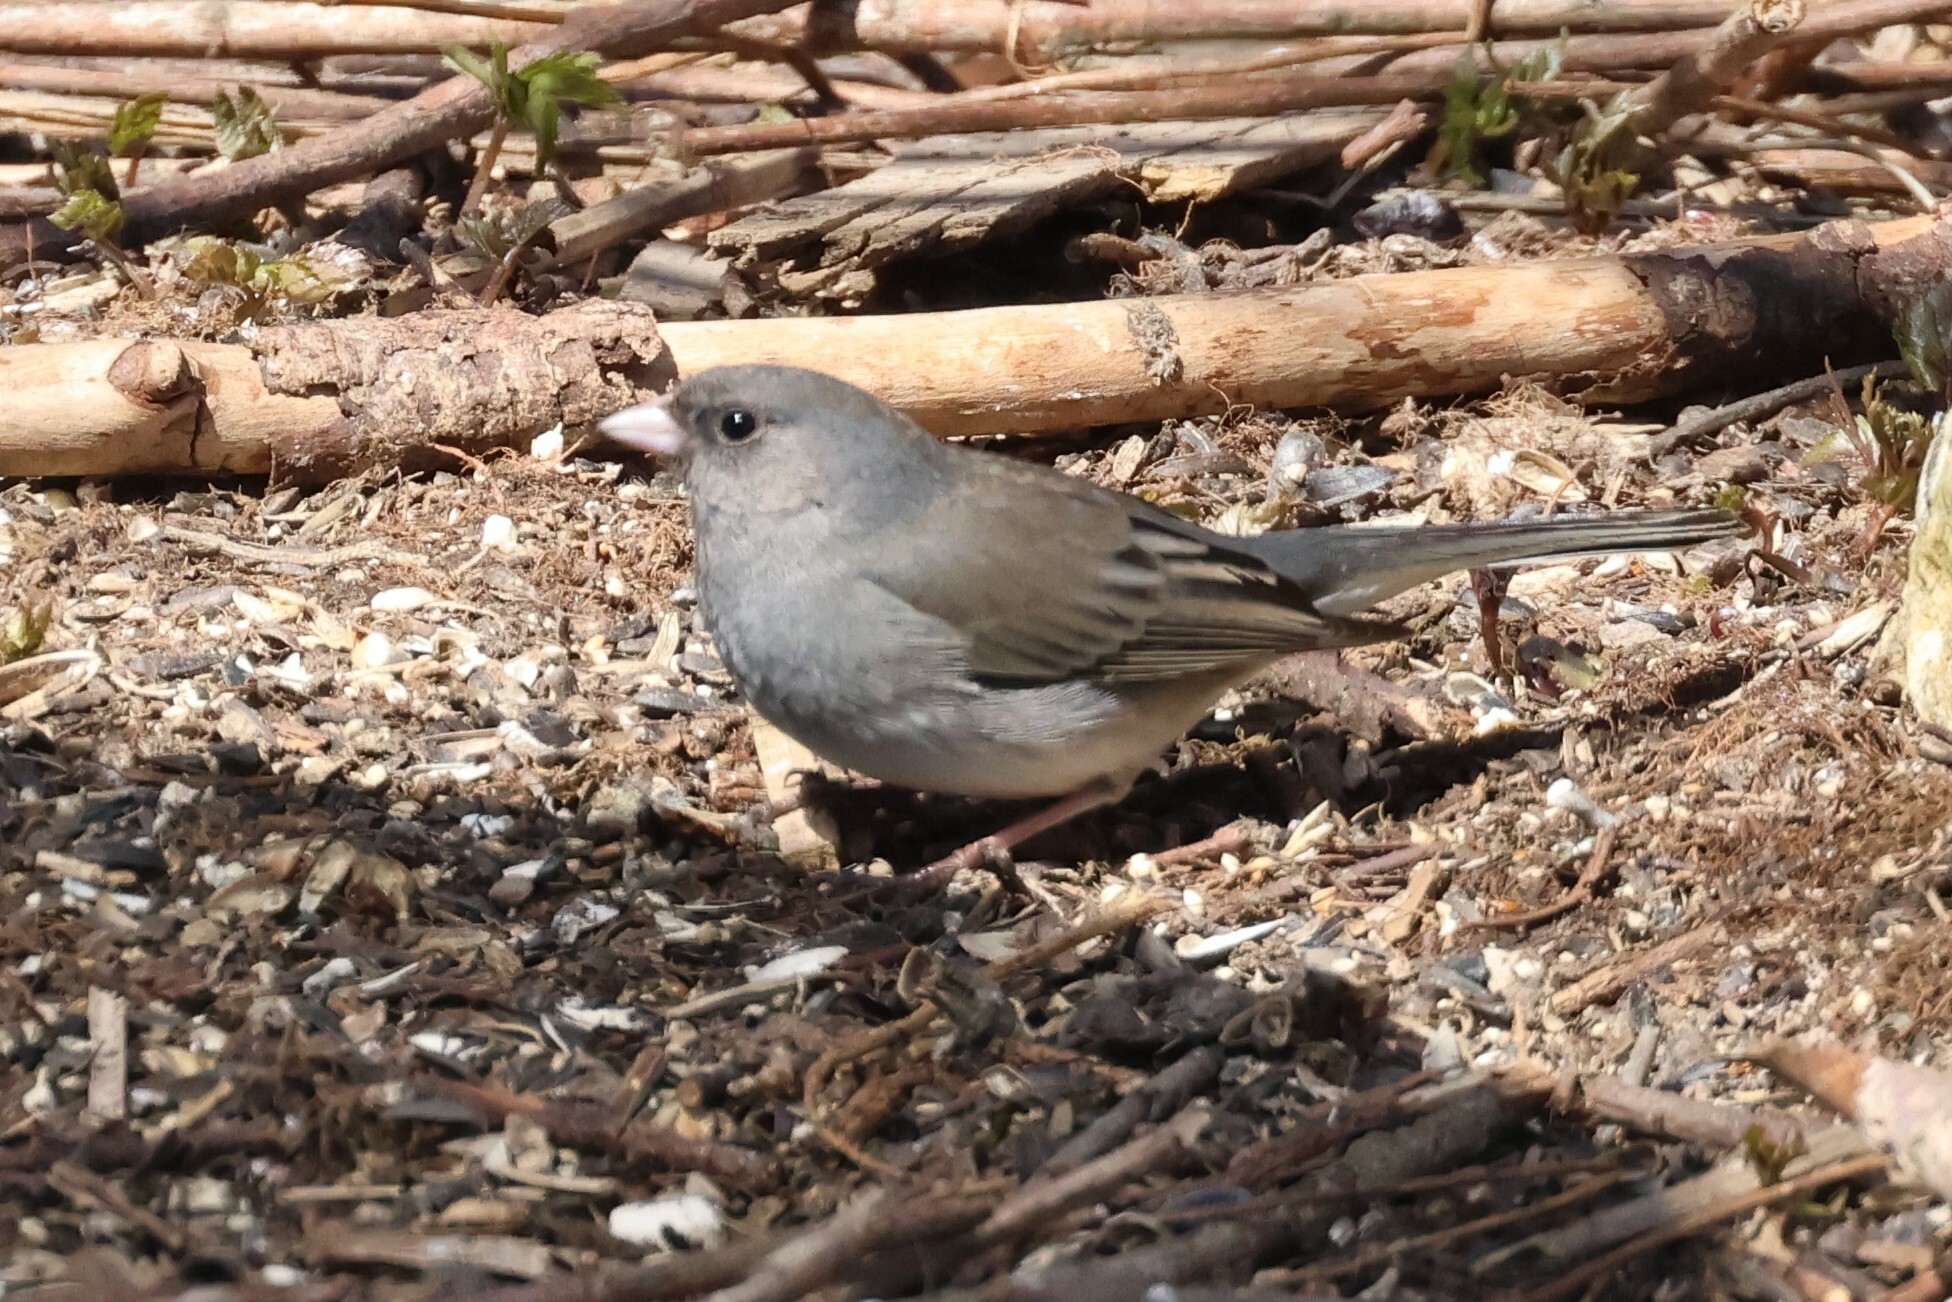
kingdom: Animalia
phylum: Chordata
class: Aves
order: Passeriformes
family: Passerellidae
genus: Junco
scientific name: Junco hyemalis
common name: Dark-eyed junco
